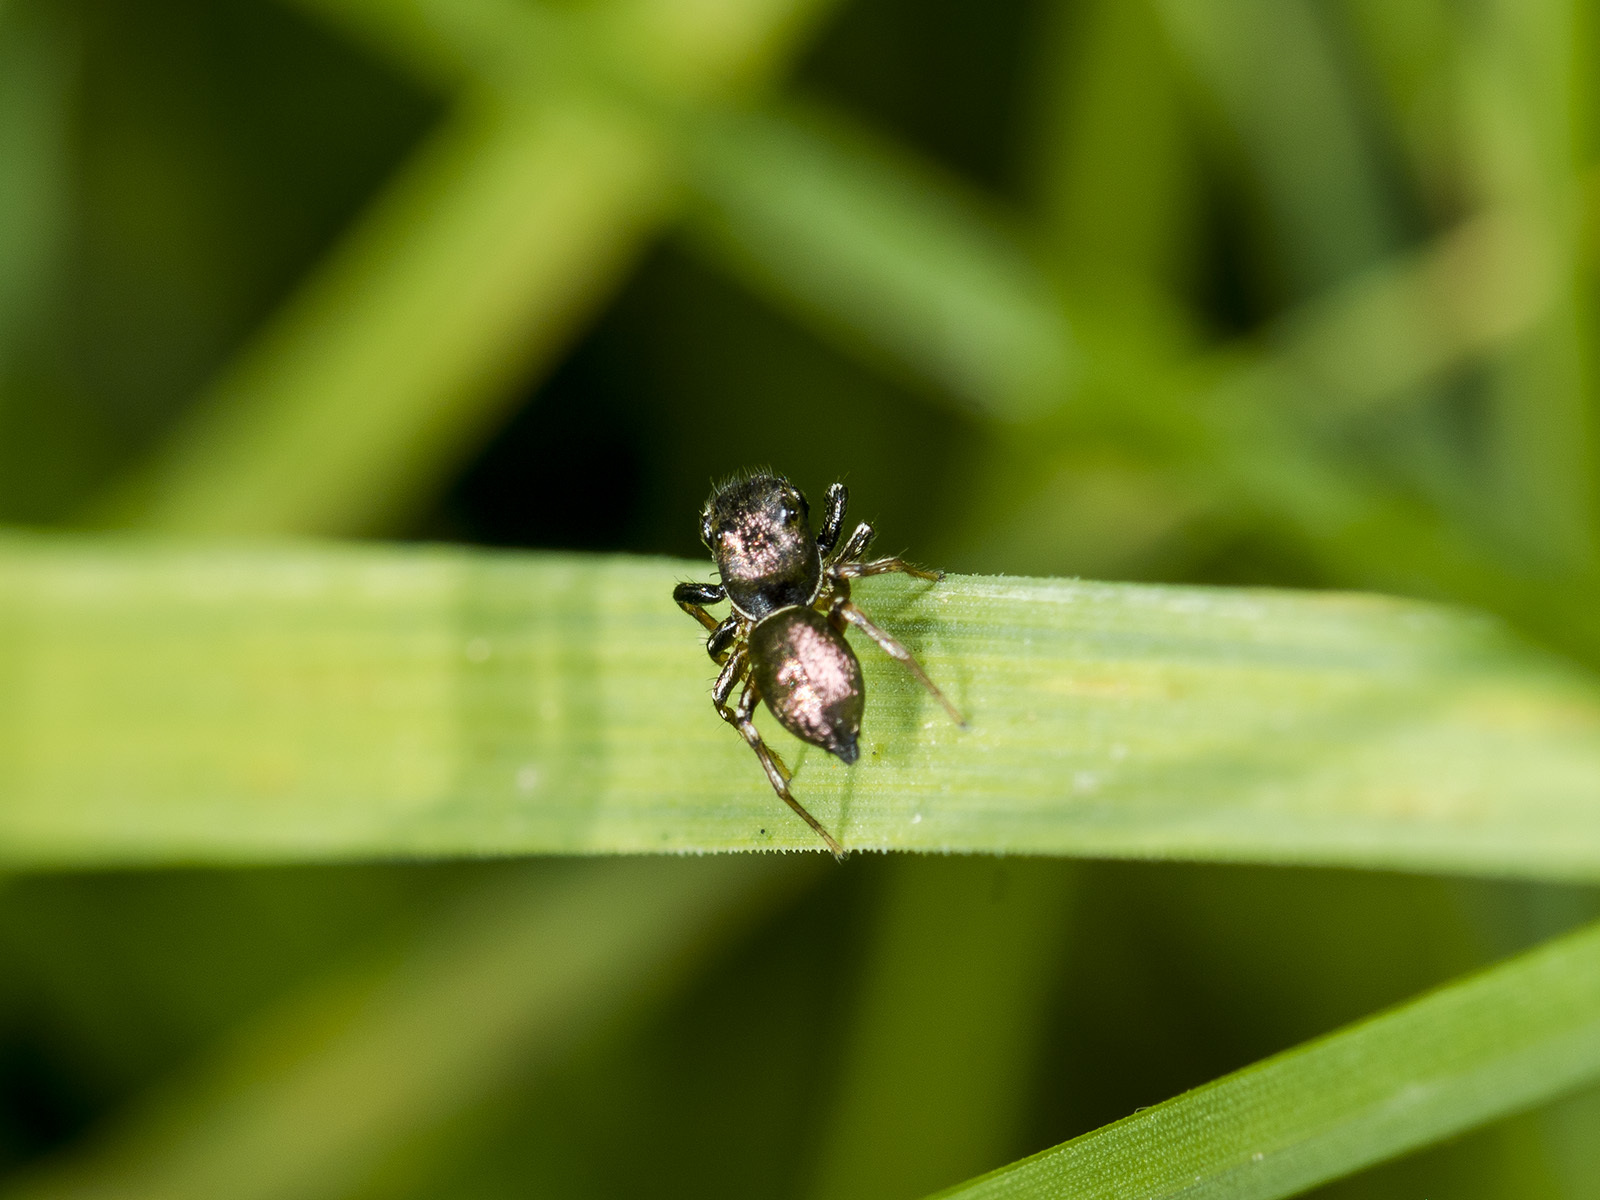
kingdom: Animalia
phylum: Arthropoda
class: Arachnida
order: Araneae
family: Salticidae
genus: Heliophanus
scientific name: Heliophanus auratus
